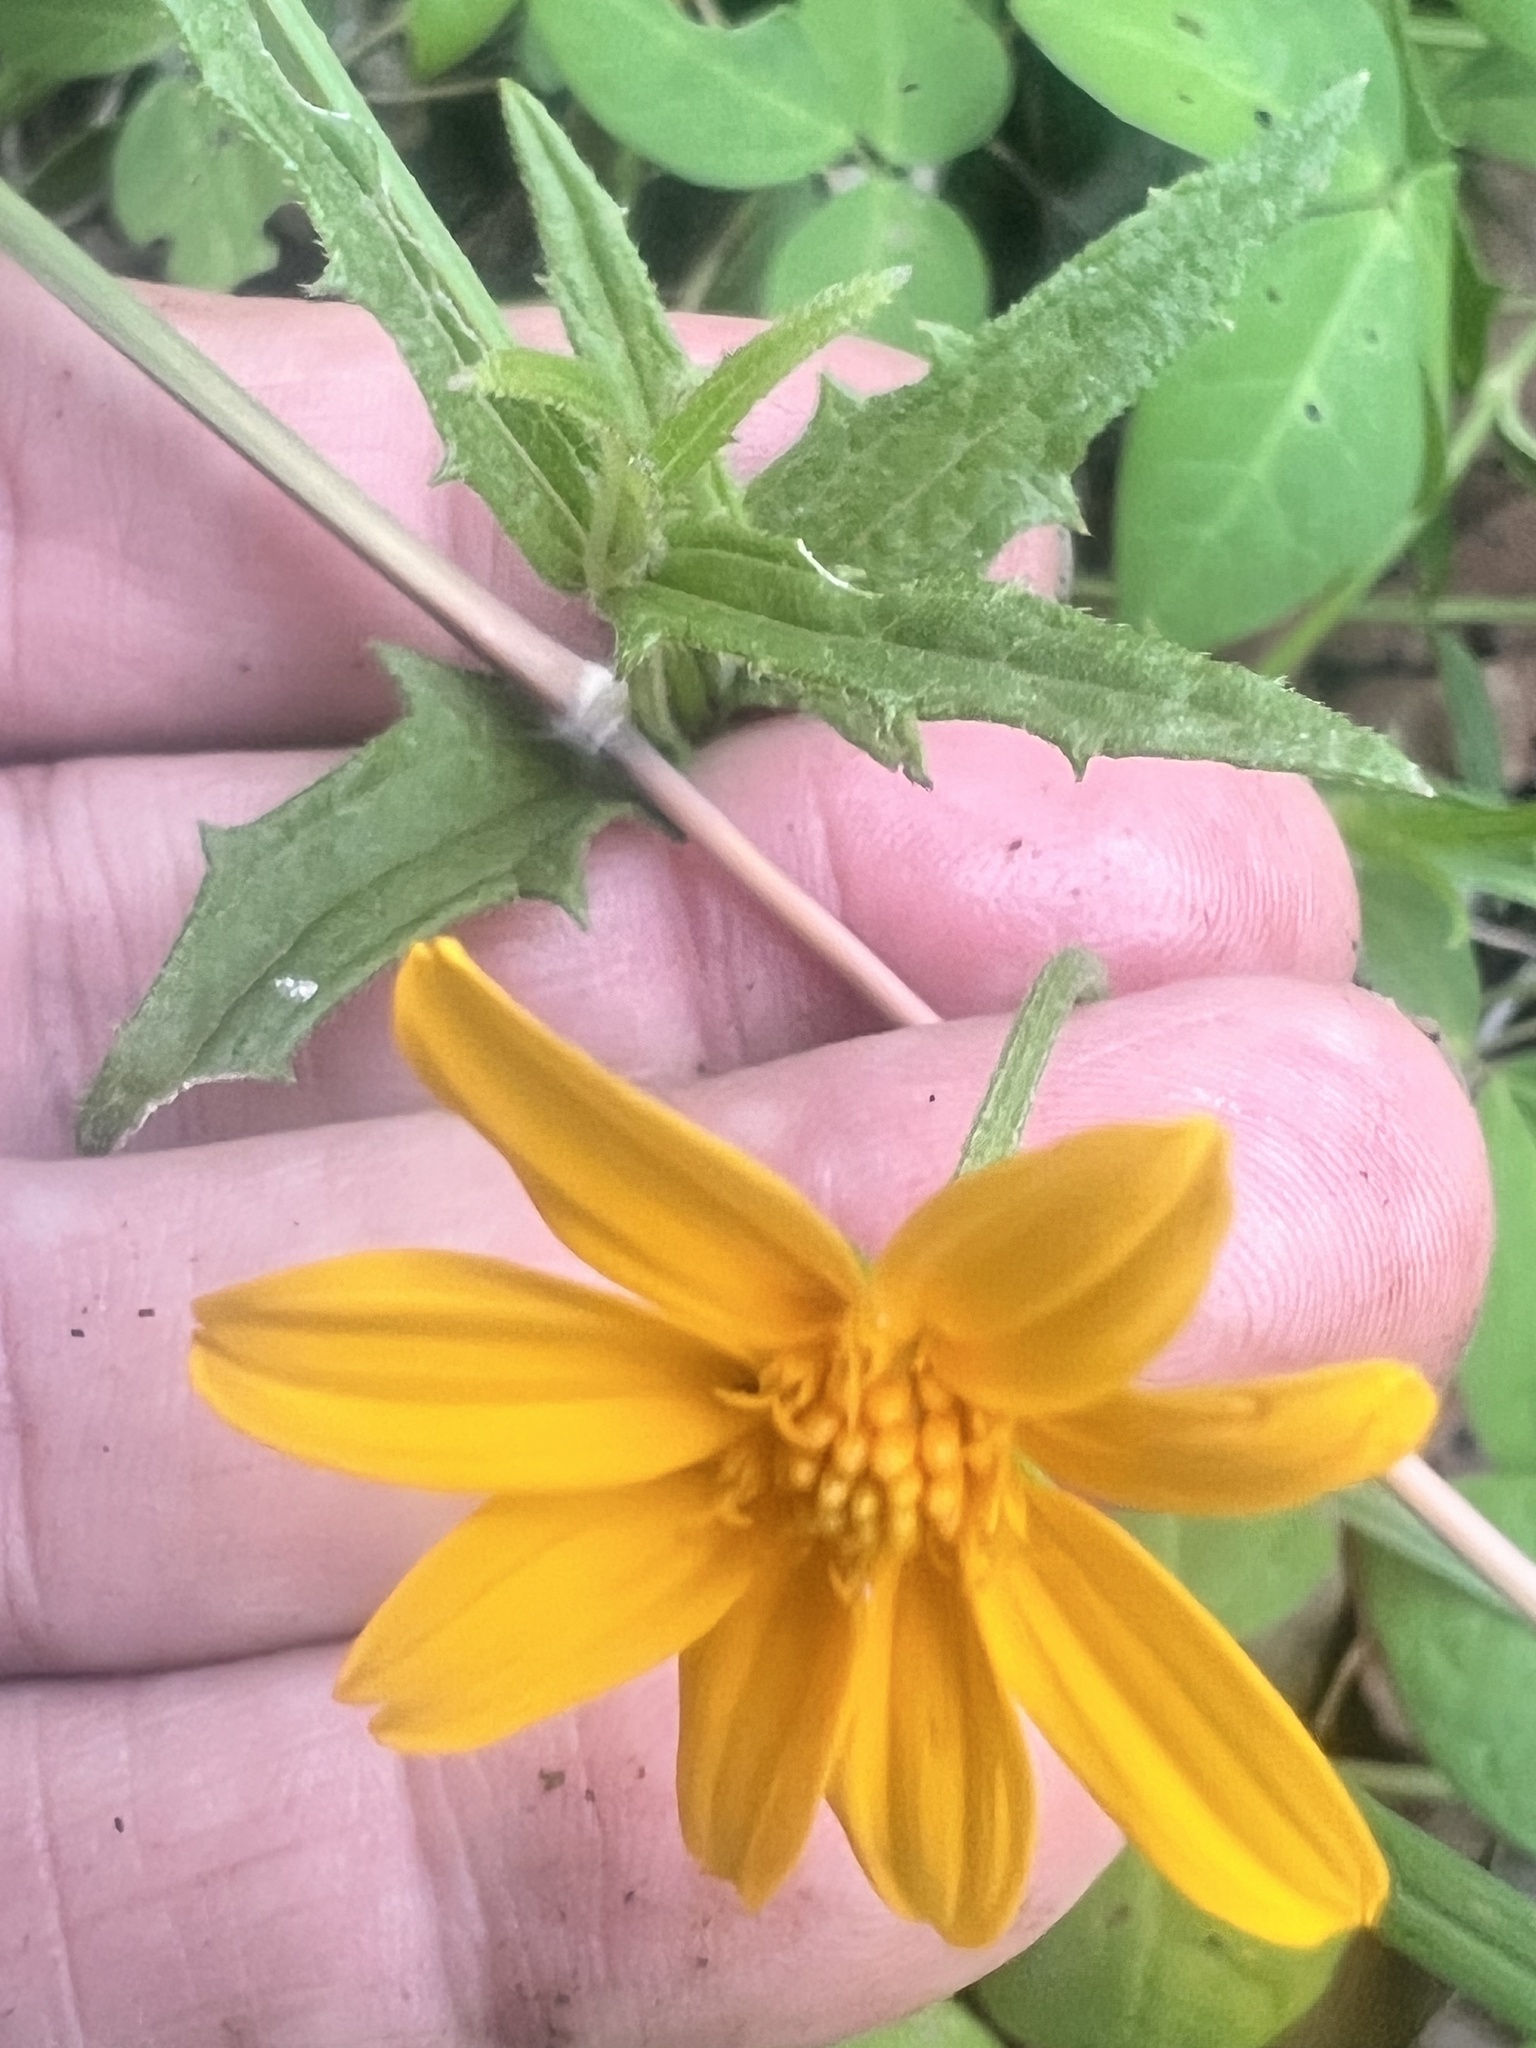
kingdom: Plantae
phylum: Tracheophyta
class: Magnoliopsida
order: Asterales
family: Asteraceae
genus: Apowollastonia
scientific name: Apowollastonia spilanthoides
